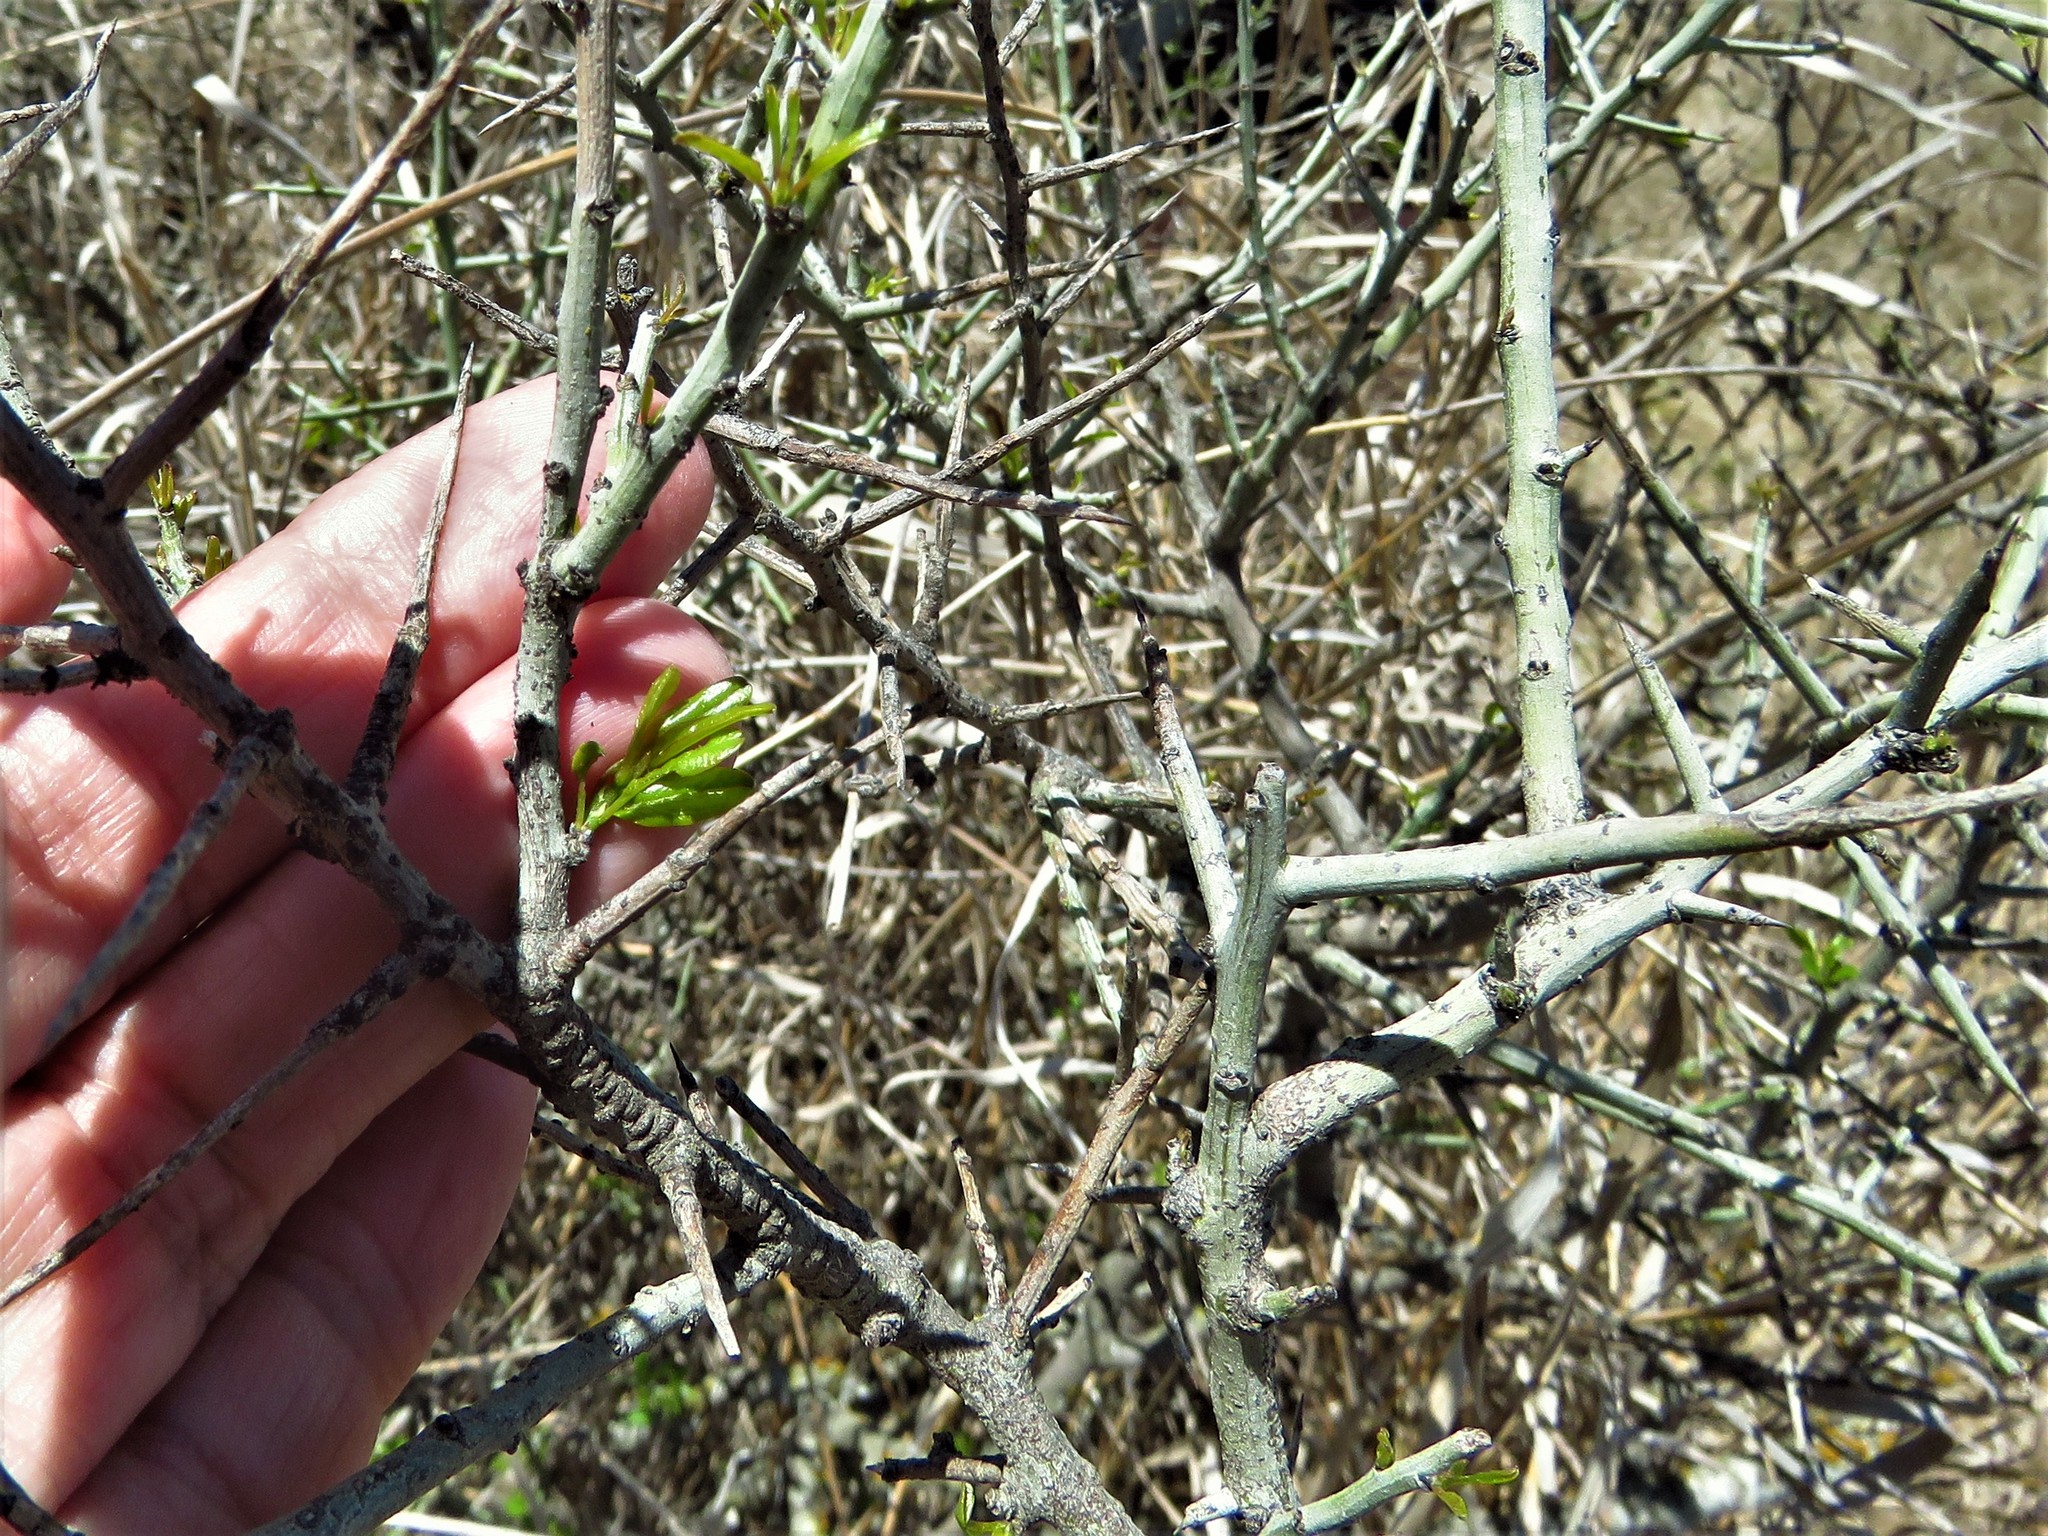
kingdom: Plantae
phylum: Tracheophyta
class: Magnoliopsida
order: Rosales
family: Rhamnaceae
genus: Sarcomphalus
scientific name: Sarcomphalus obtusifolius
